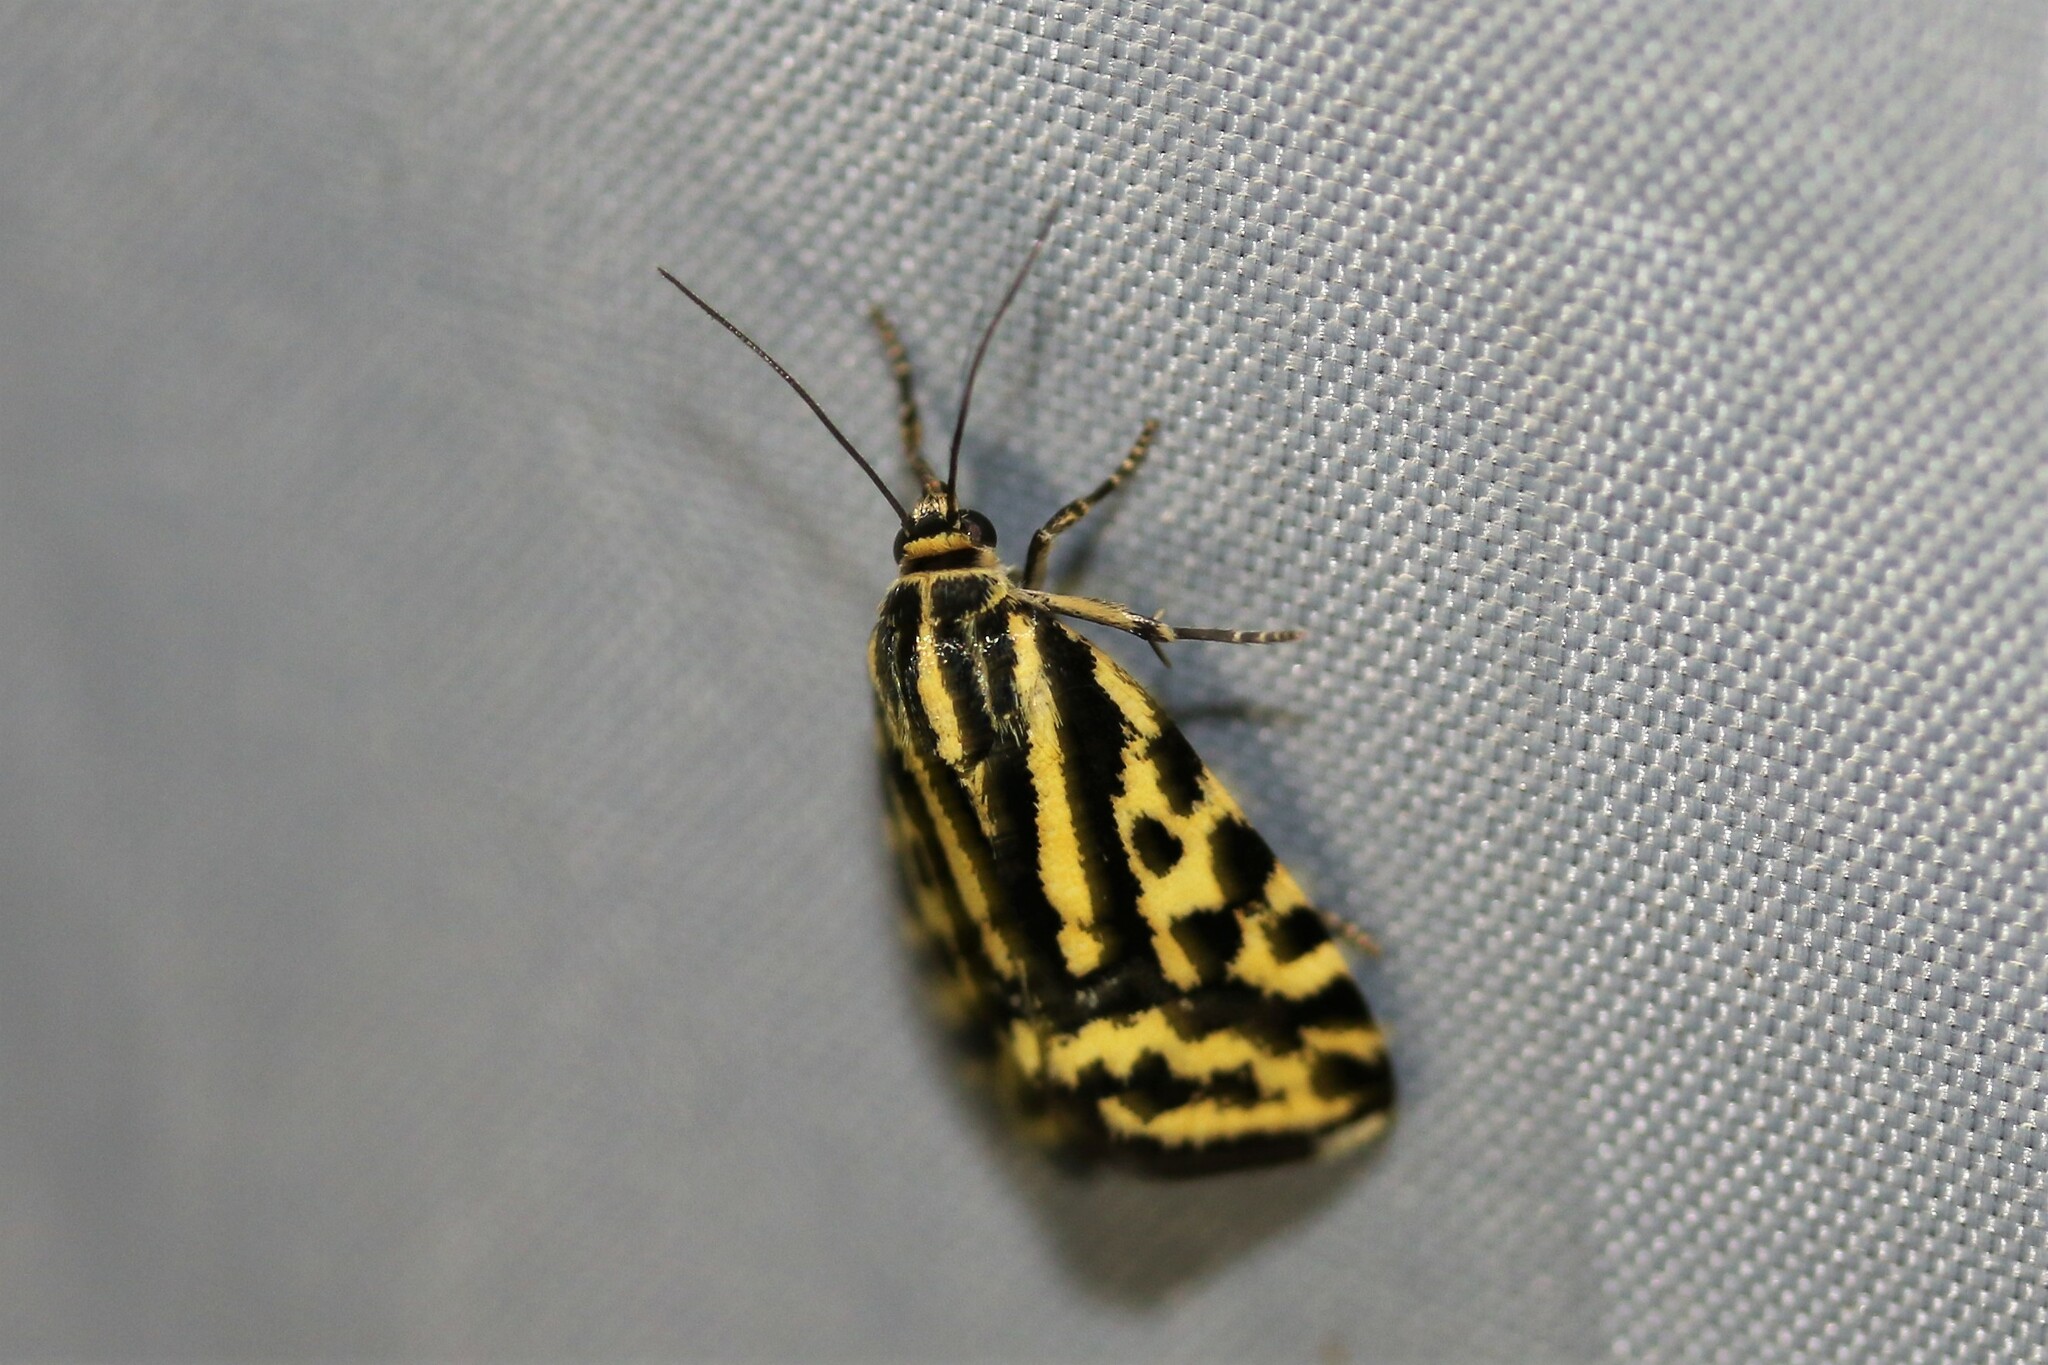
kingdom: Animalia
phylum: Arthropoda
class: Insecta
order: Lepidoptera
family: Noctuidae
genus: Acontia
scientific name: Acontia trabealis
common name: Spotted sulphur
